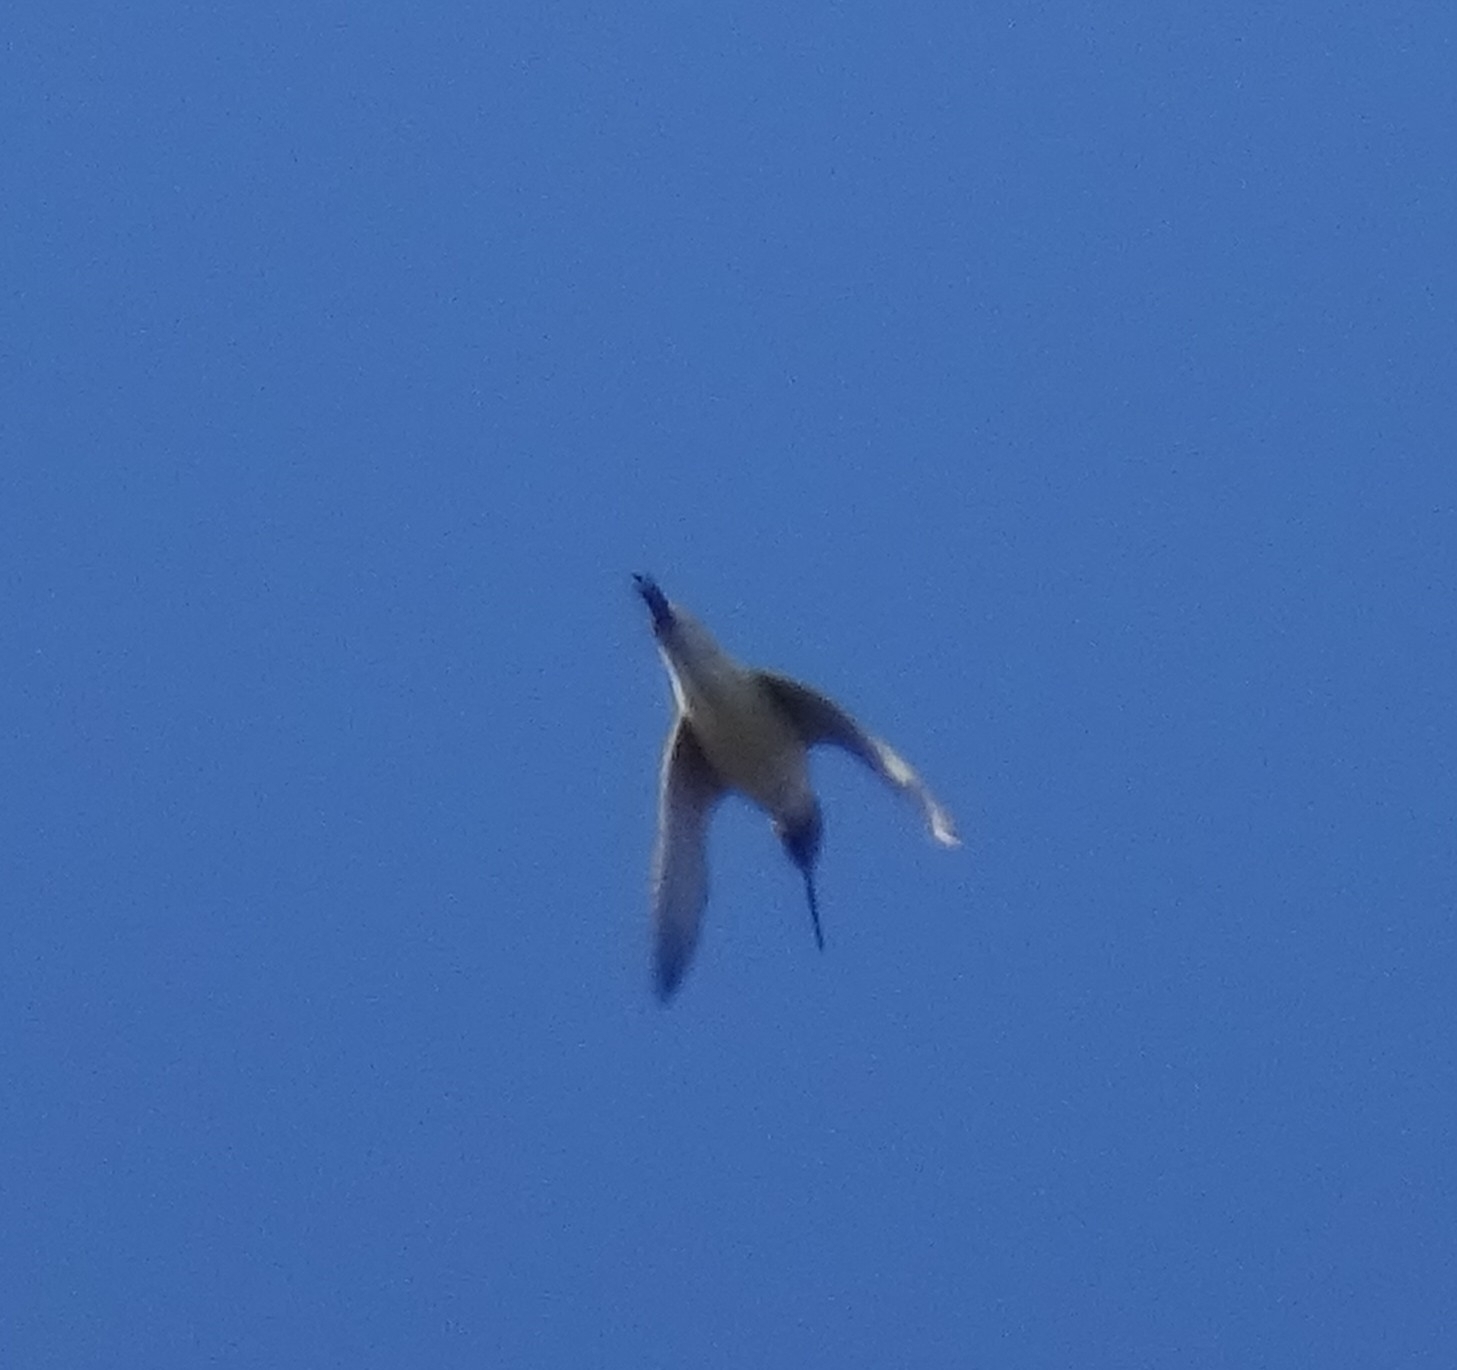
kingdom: Animalia
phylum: Chordata
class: Aves
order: Charadriiformes
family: Scolopacidae
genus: Tringa
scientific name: Tringa nebularia
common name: Common greenshank
